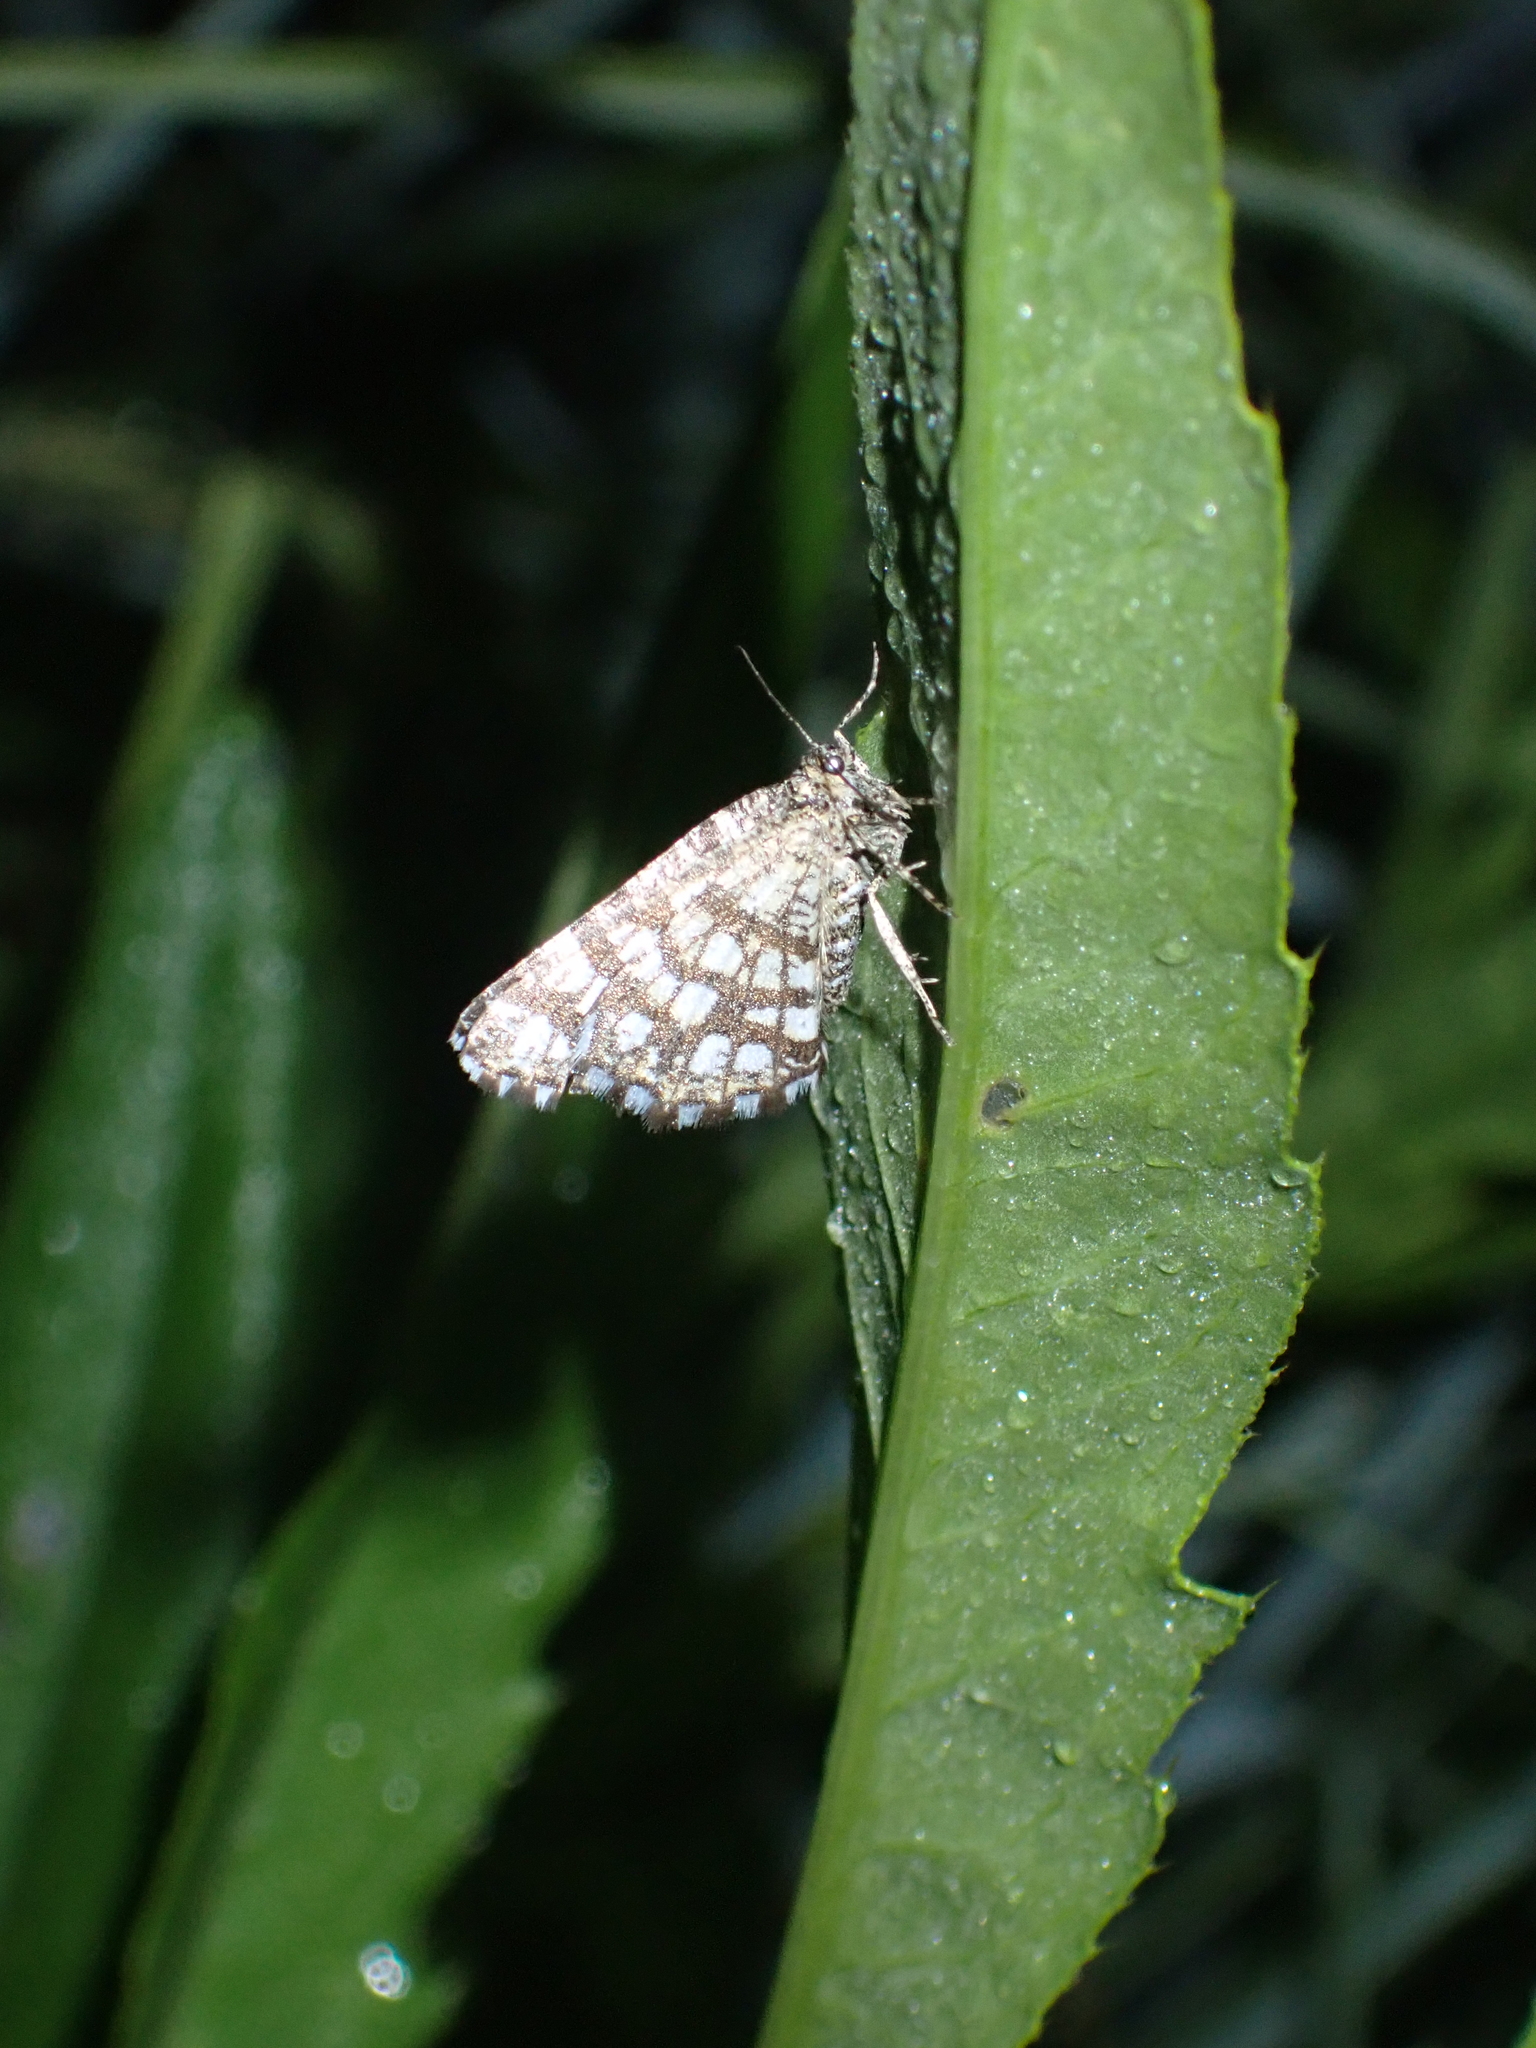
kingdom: Animalia
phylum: Arthropoda
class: Insecta
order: Lepidoptera
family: Geometridae
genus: Chiasmia
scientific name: Chiasmia clathrata
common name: Latticed heath
